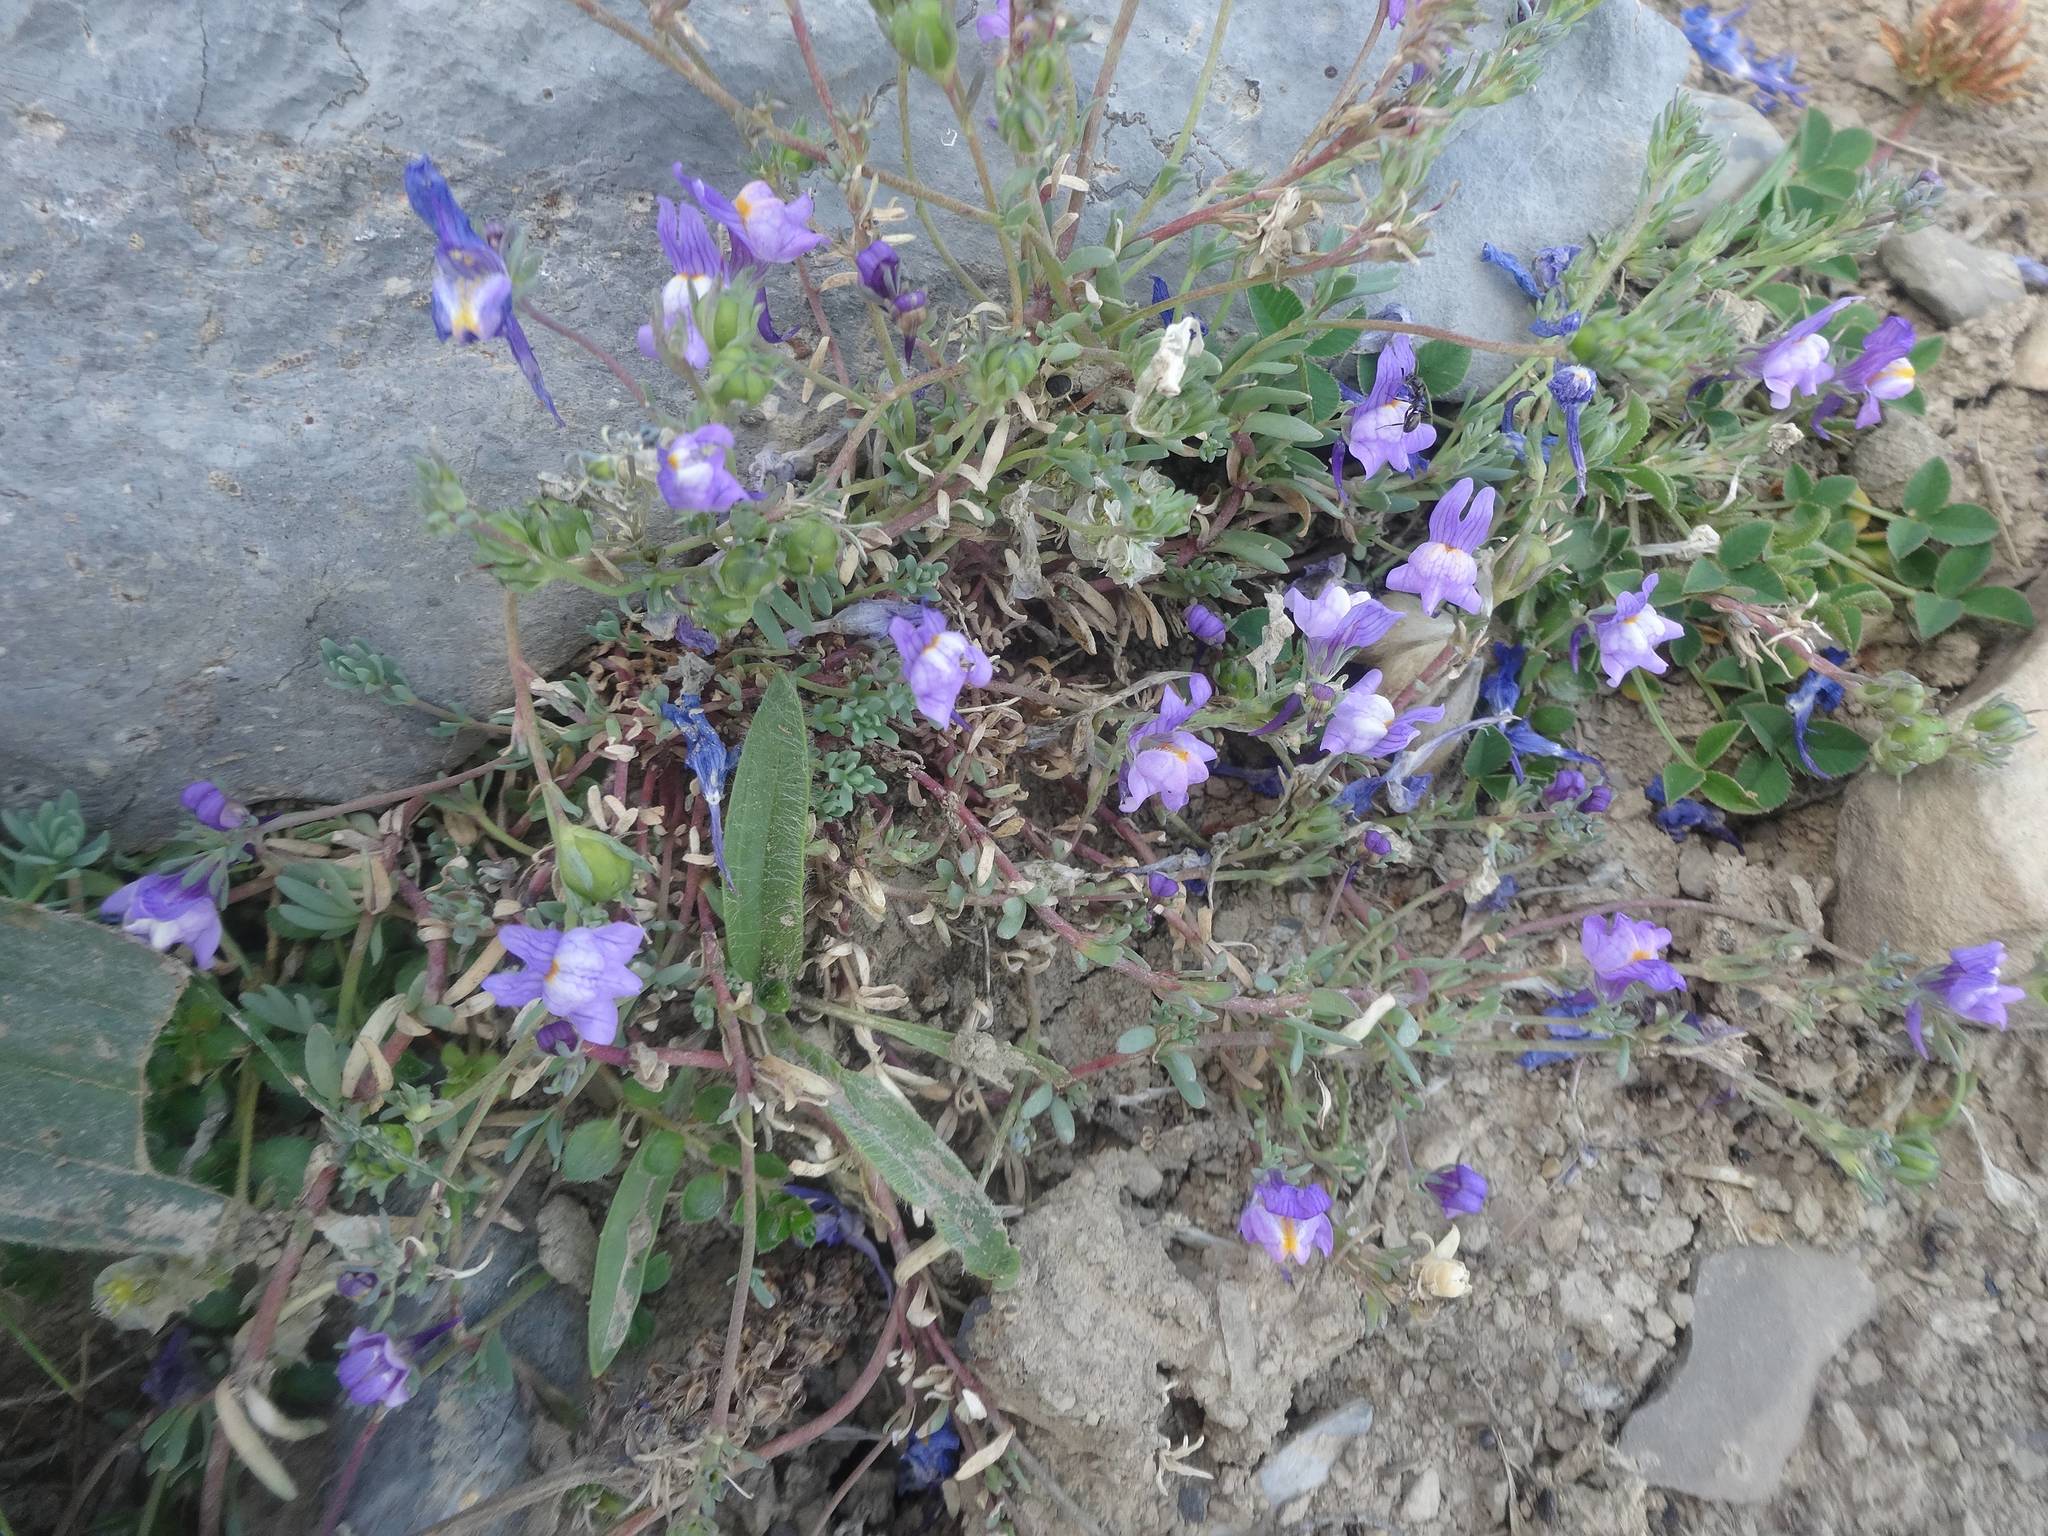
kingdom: Plantae
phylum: Tracheophyta
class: Magnoliopsida
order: Lamiales
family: Plantaginaceae
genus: Linaria
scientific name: Linaria alpina
